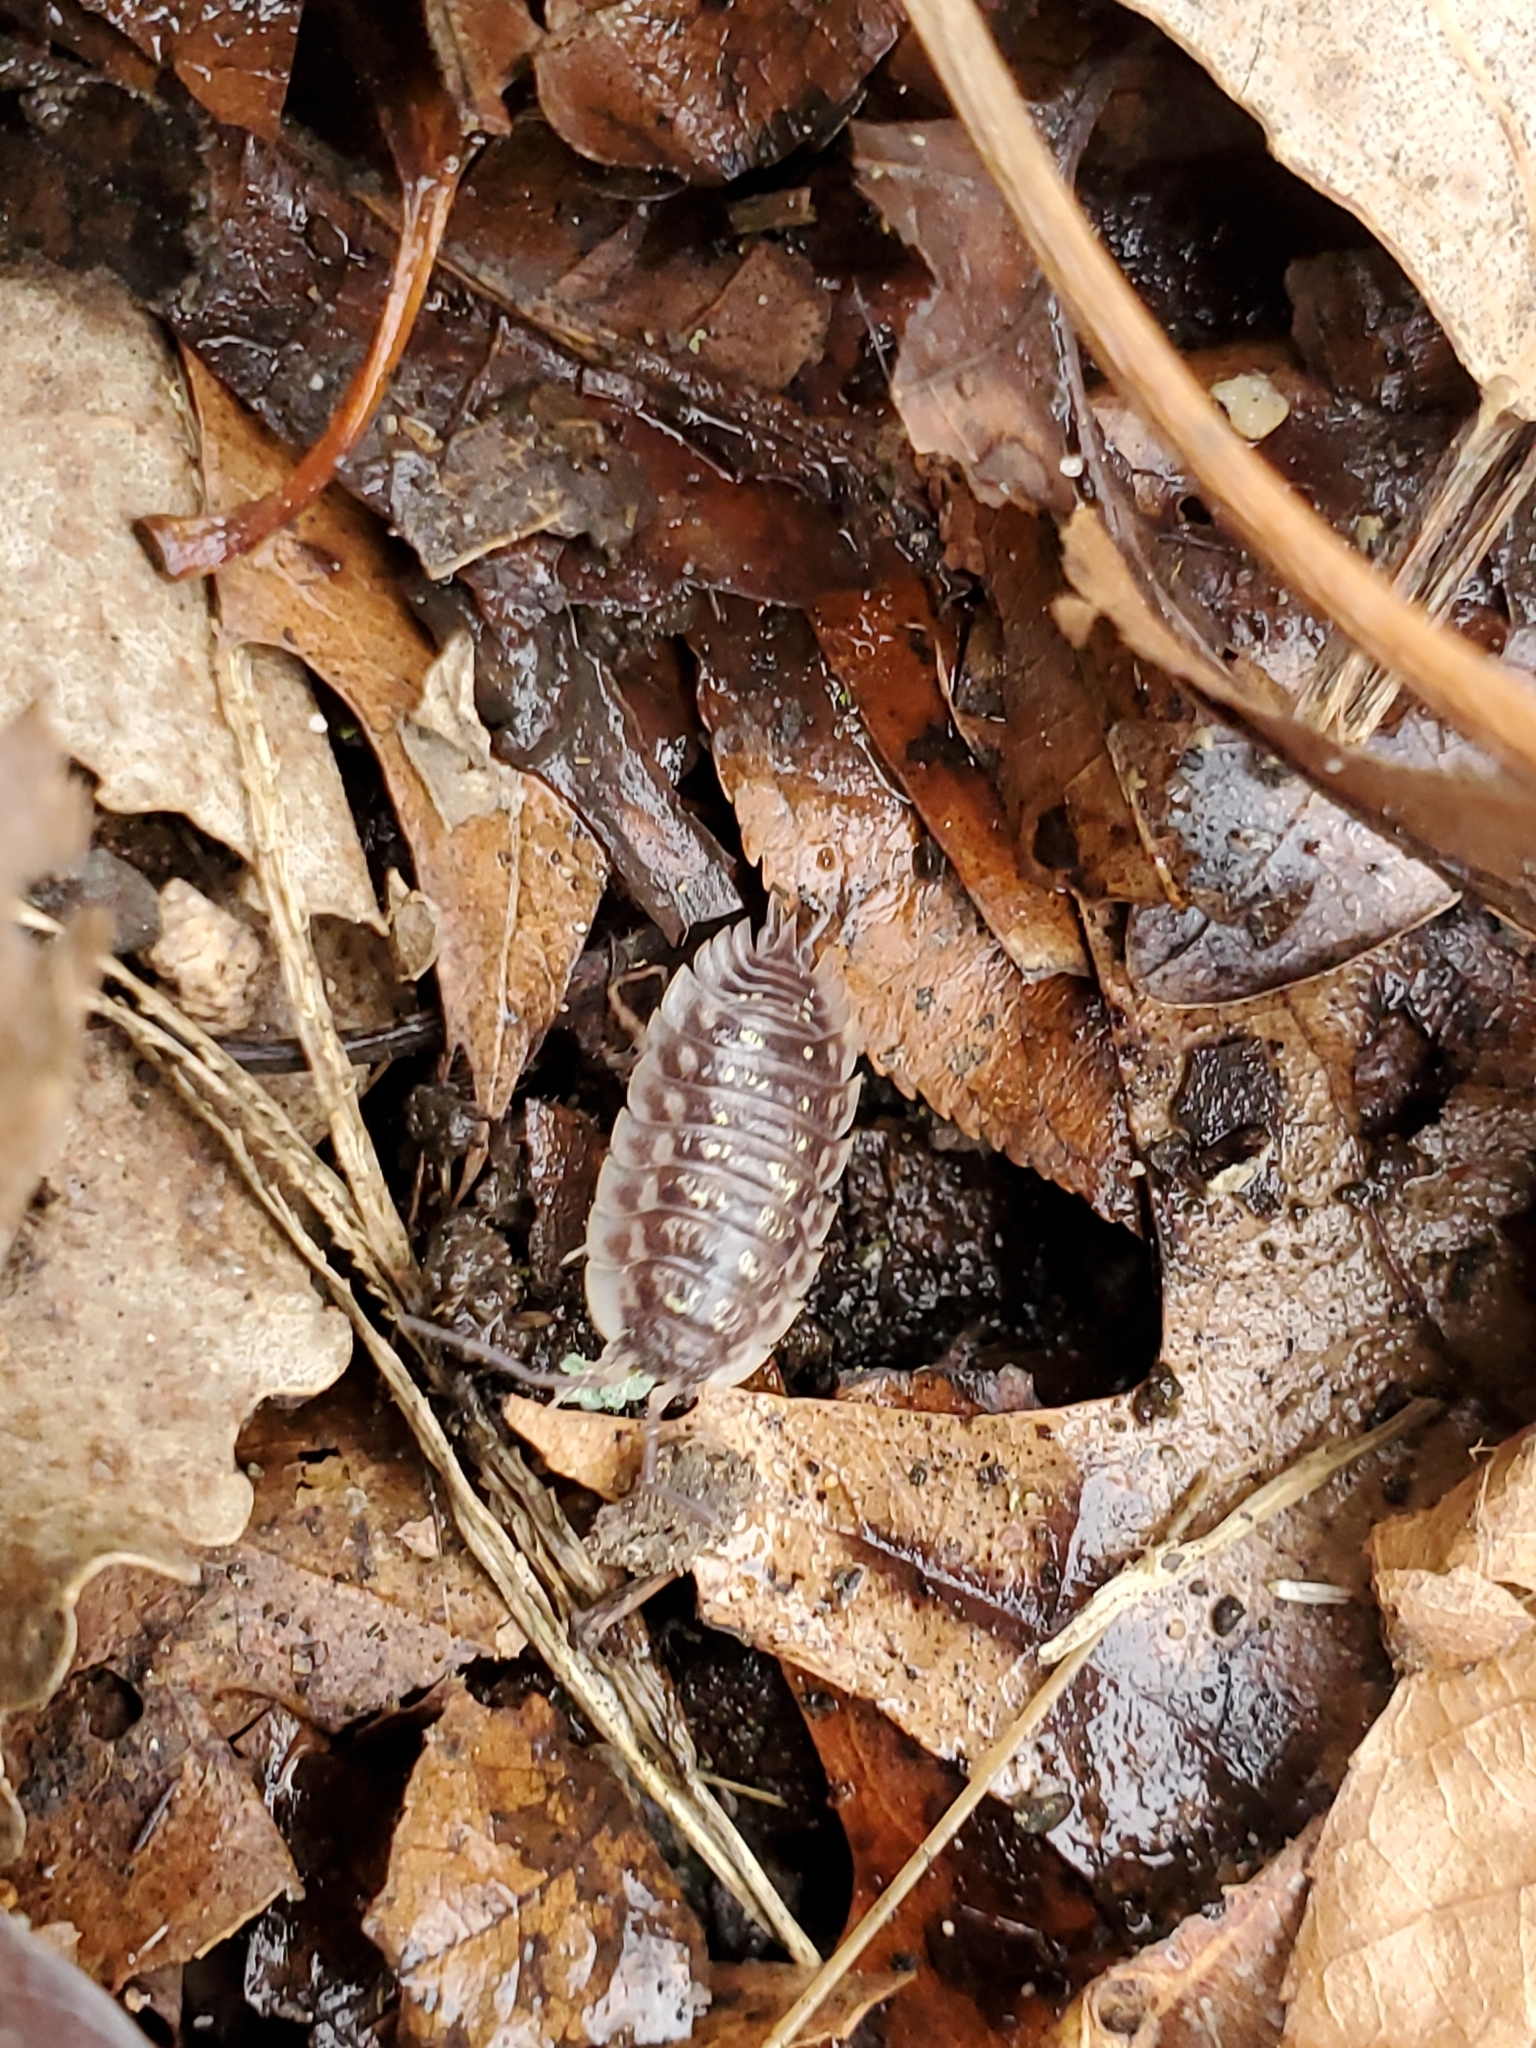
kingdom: Animalia
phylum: Arthropoda
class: Malacostraca
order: Isopoda
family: Oniscidae
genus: Oniscus
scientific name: Oniscus asellus
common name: Common shiny woodlouse
